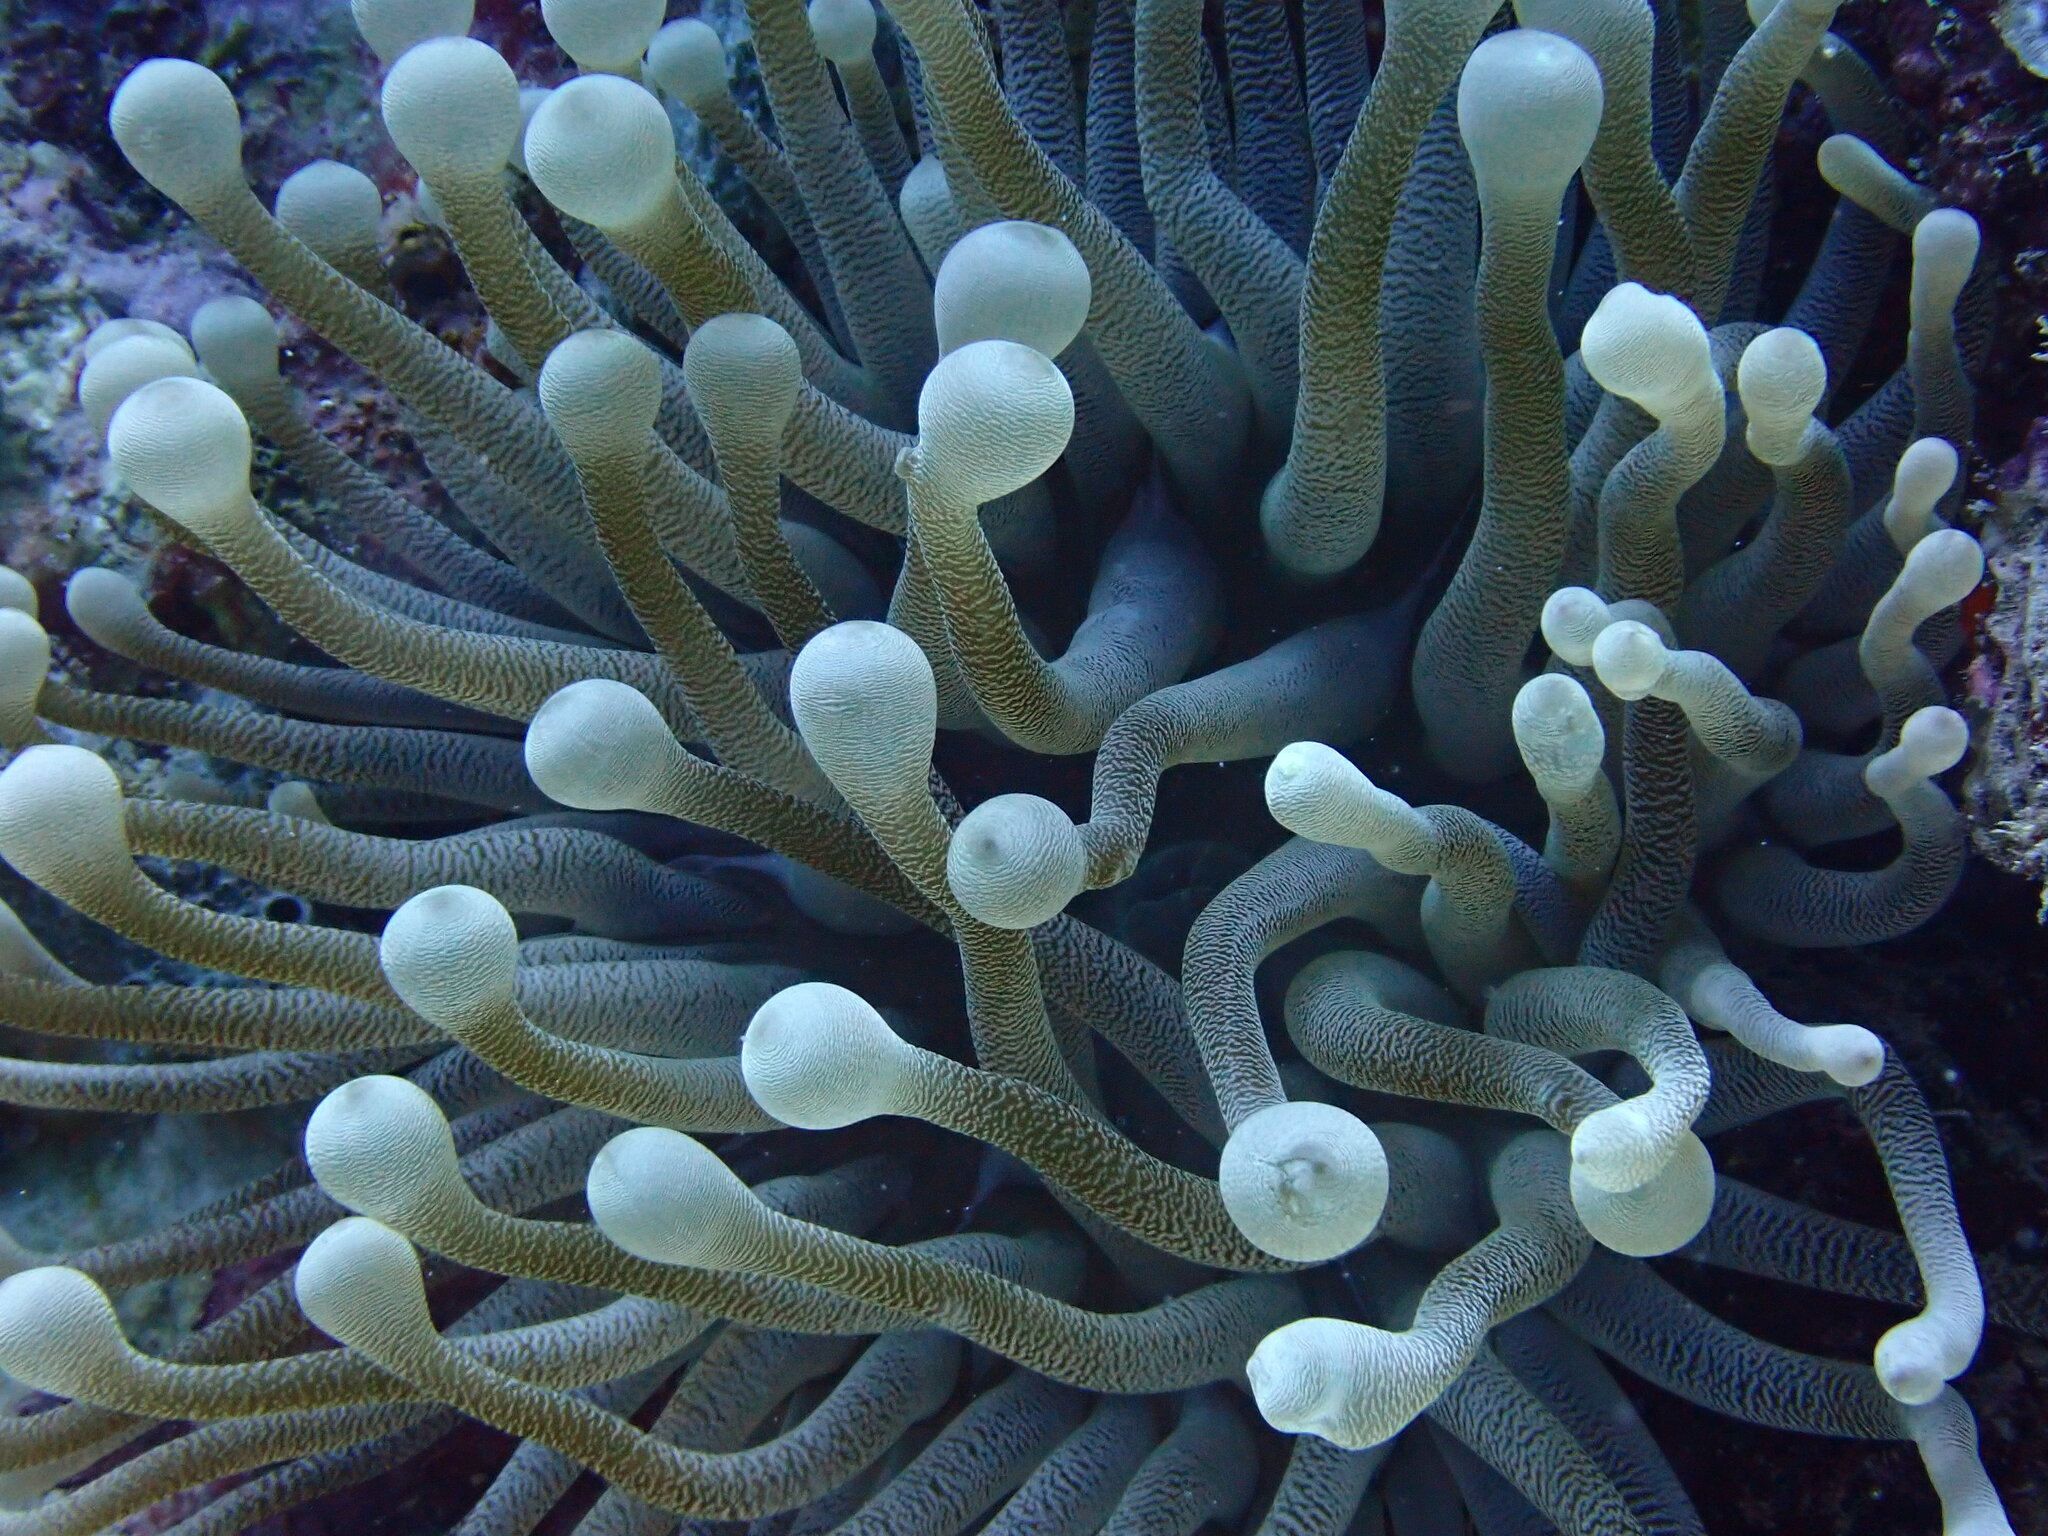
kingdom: Animalia
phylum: Cnidaria
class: Anthozoa
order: Actiniaria
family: Actiniidae
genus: Condylactis
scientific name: Condylactis gigantea
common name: Giant caribbean anemone
